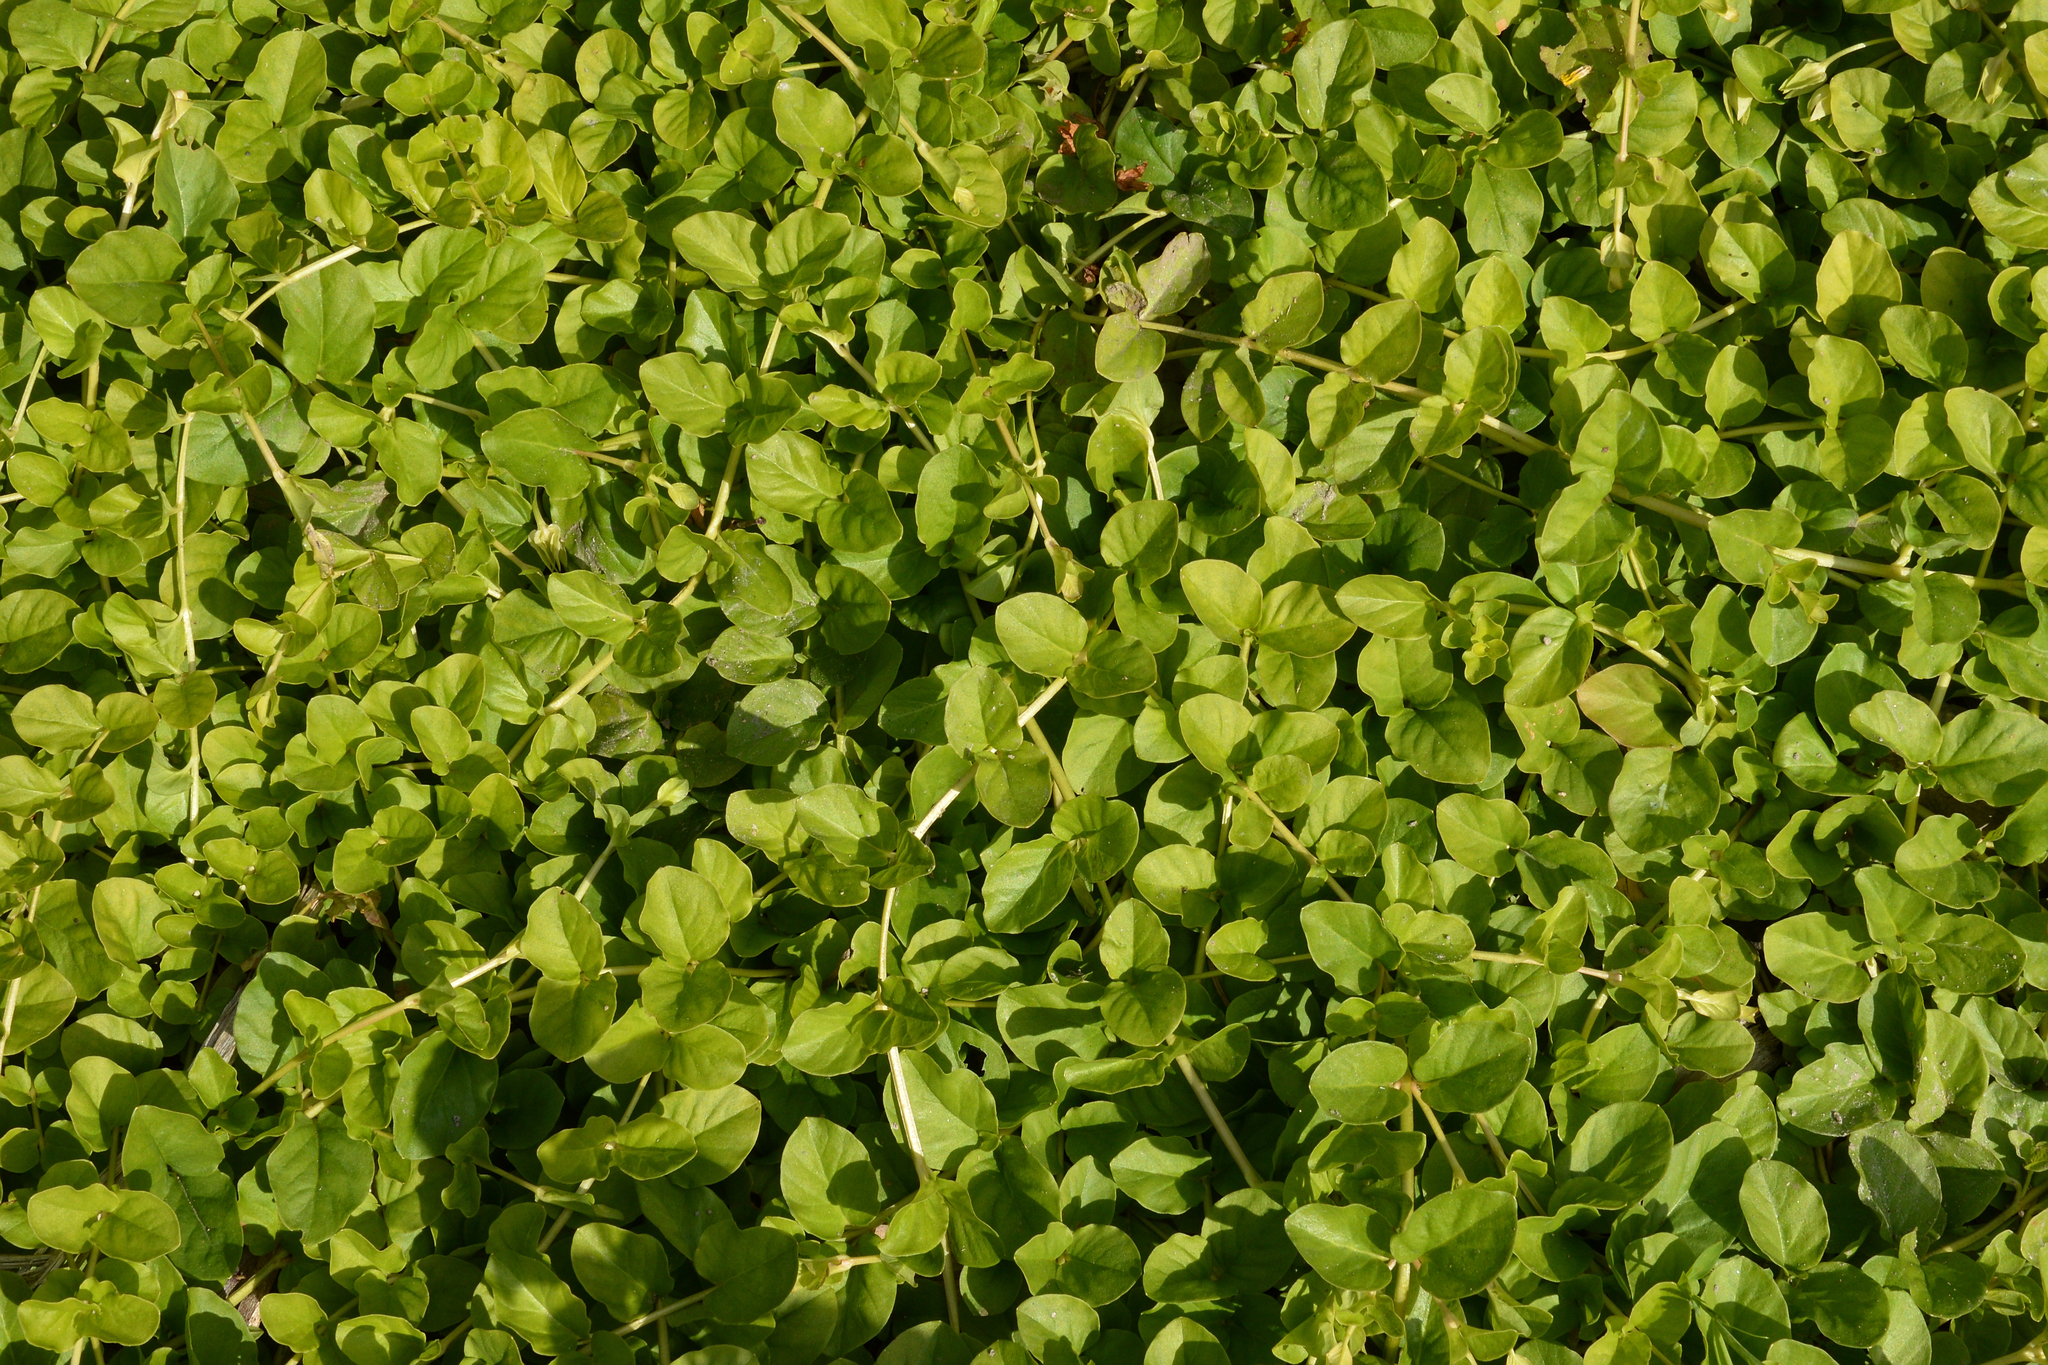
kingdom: Plantae
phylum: Tracheophyta
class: Magnoliopsida
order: Ericales
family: Primulaceae
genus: Lysimachia
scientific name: Lysimachia nummularia
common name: Moneywort
